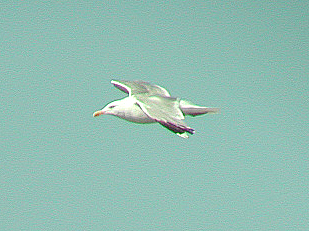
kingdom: Animalia
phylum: Chordata
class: Aves
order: Charadriiformes
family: Laridae
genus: Larus
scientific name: Larus argentatus
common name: Herring gull
